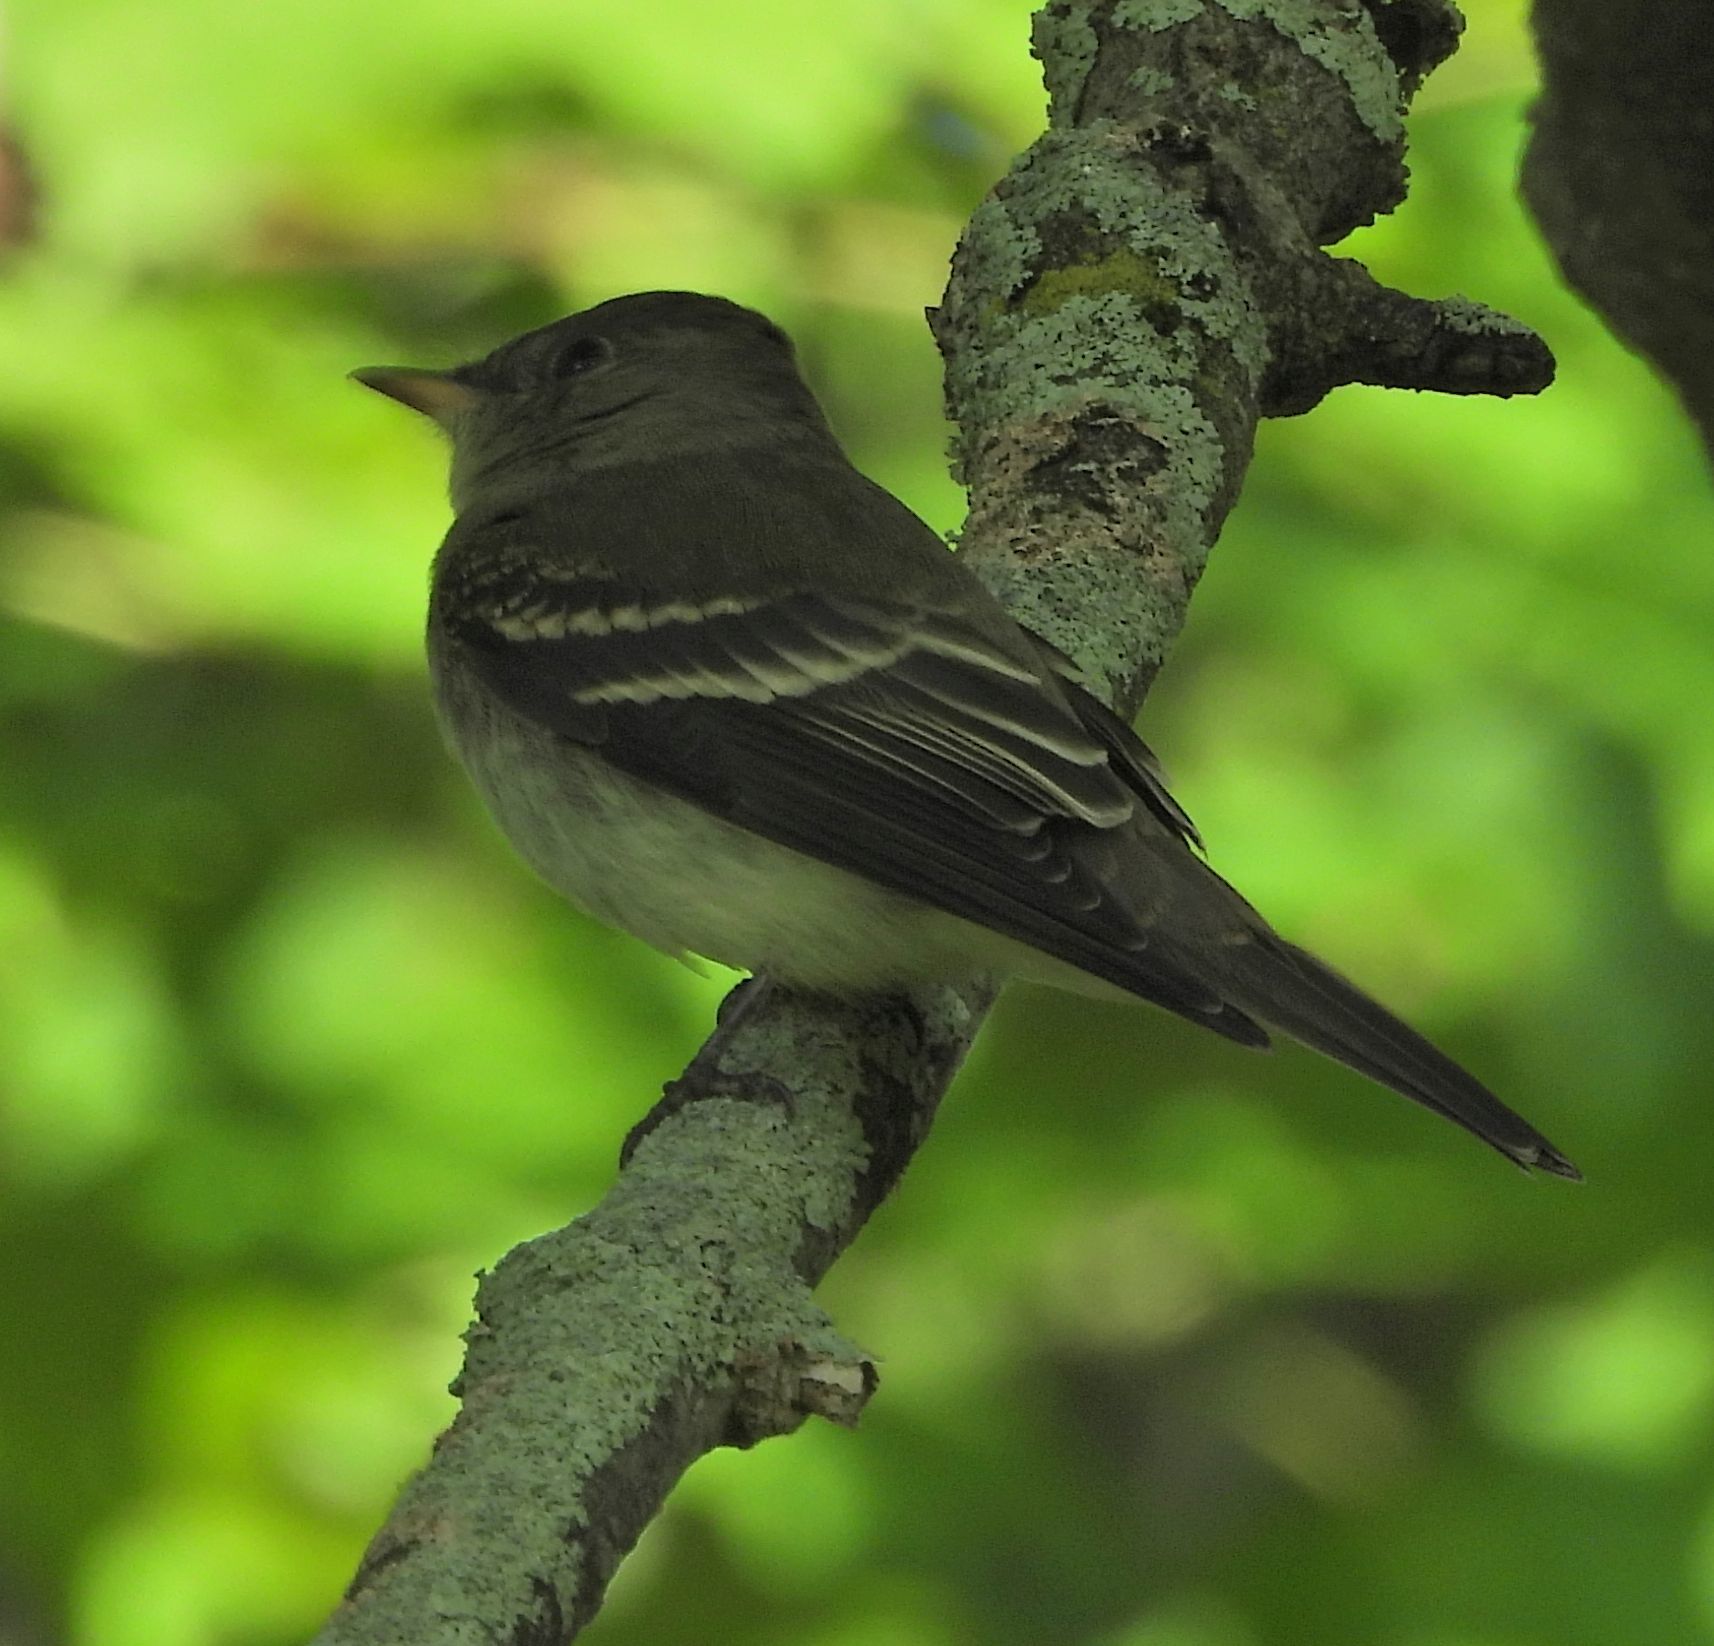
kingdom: Animalia
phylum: Chordata
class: Aves
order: Passeriformes
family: Tyrannidae
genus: Contopus
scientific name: Contopus virens
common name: Eastern wood-pewee
